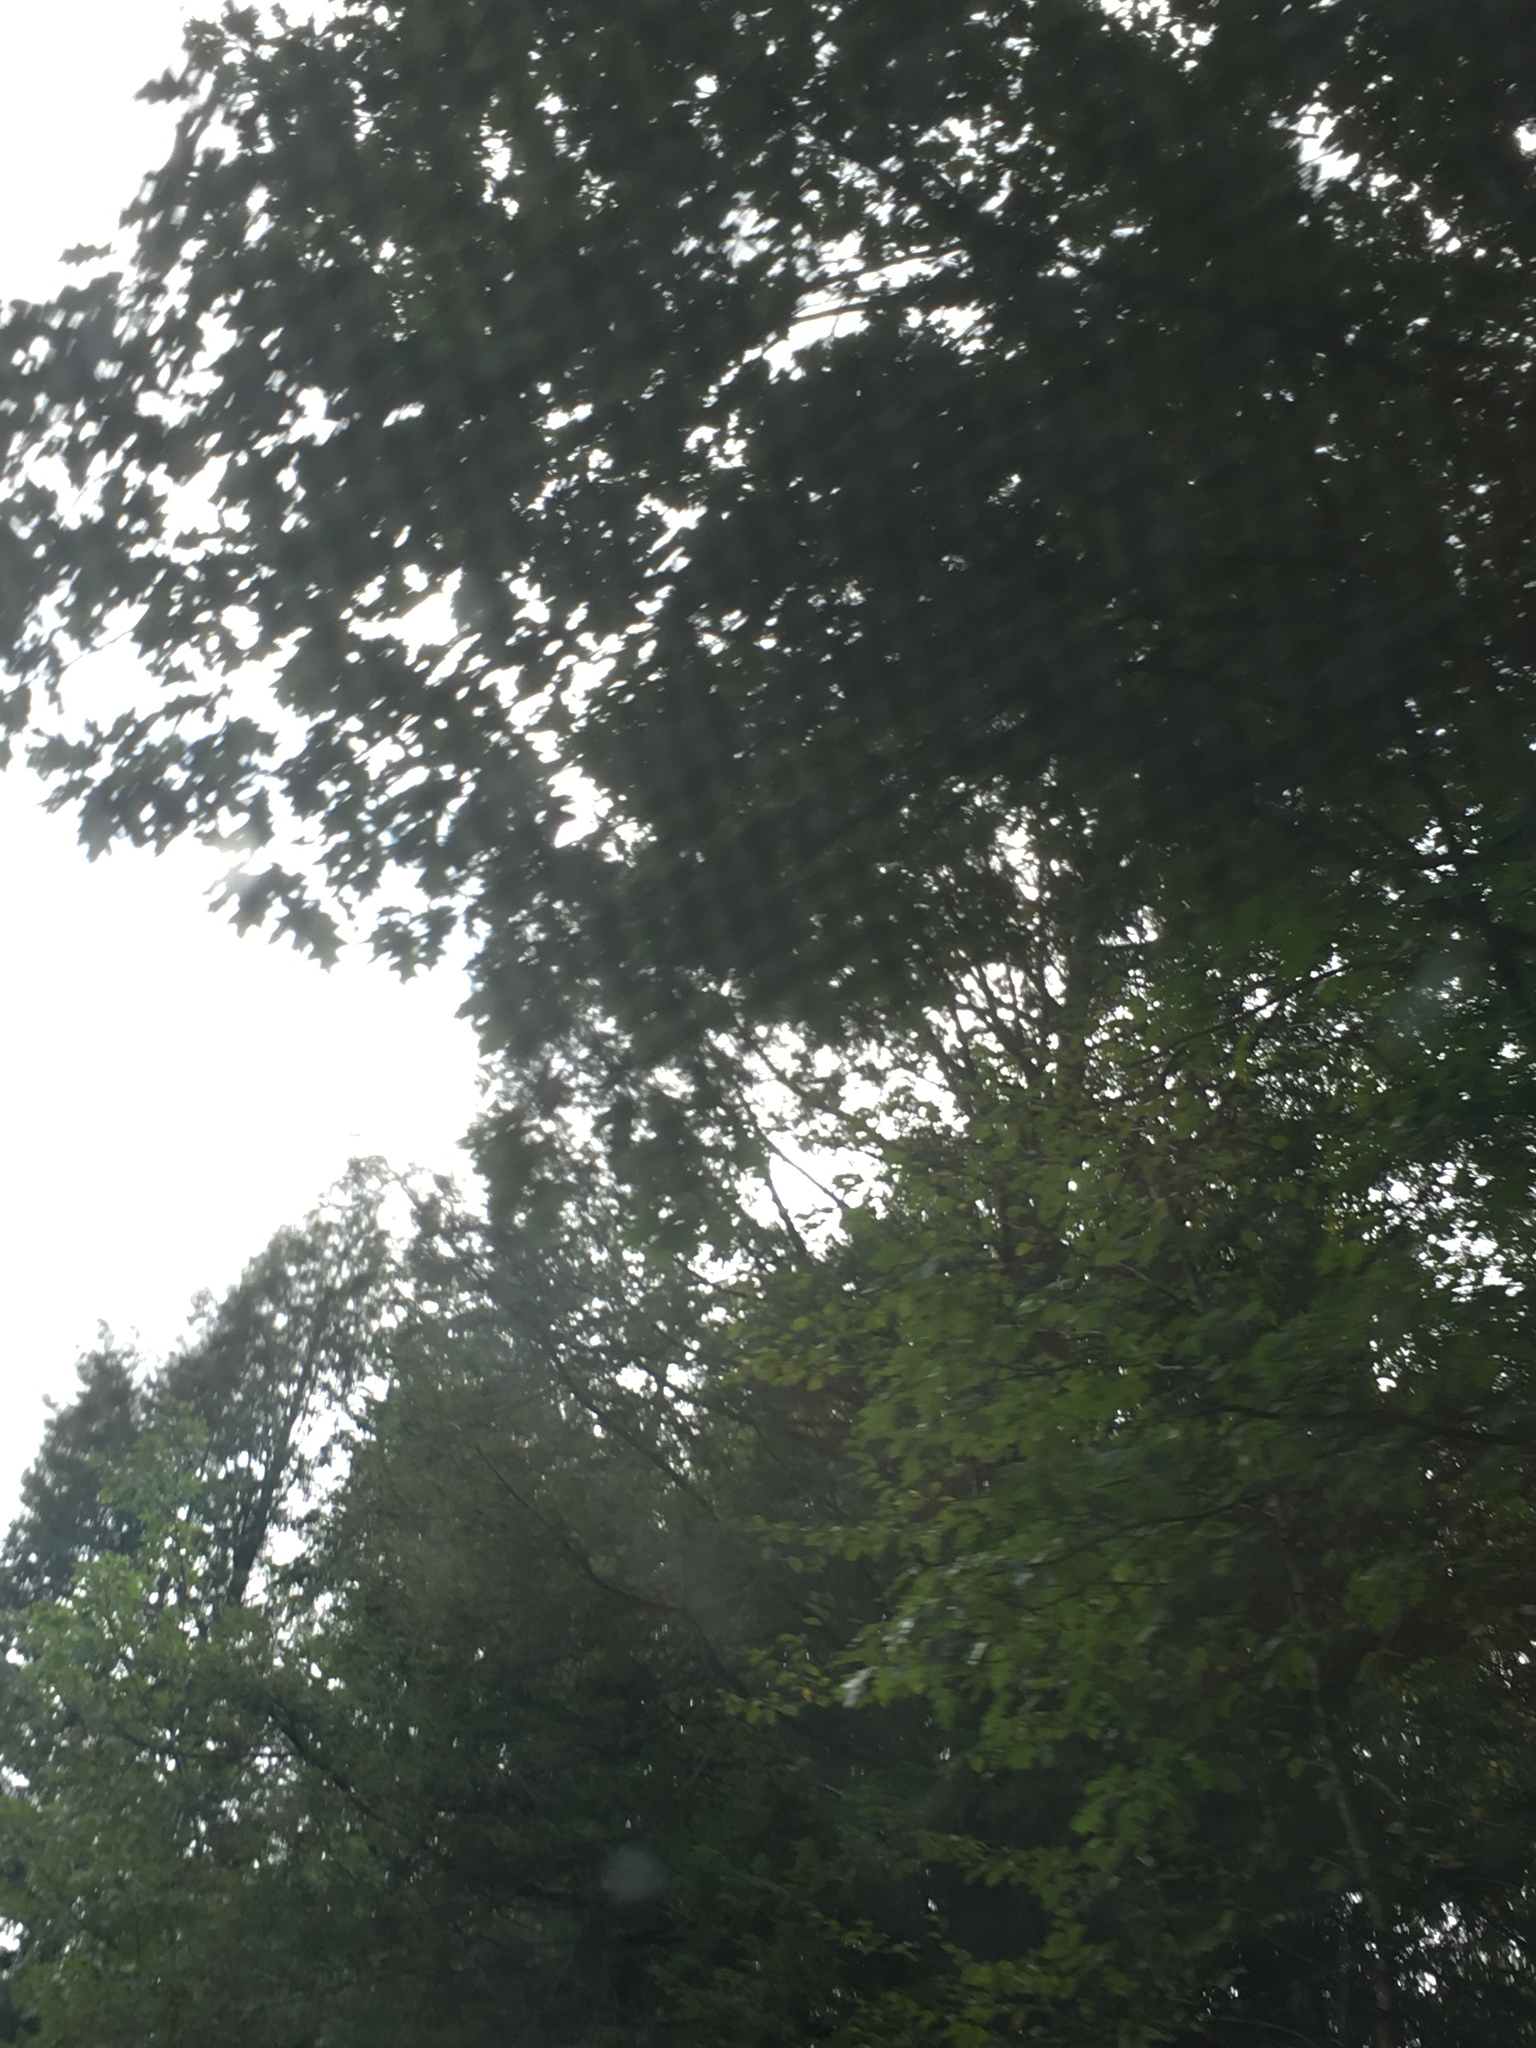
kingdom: Plantae
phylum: Tracheophyta
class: Magnoliopsida
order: Fagales
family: Fagaceae
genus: Quercus
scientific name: Quercus rubra
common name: Red oak
